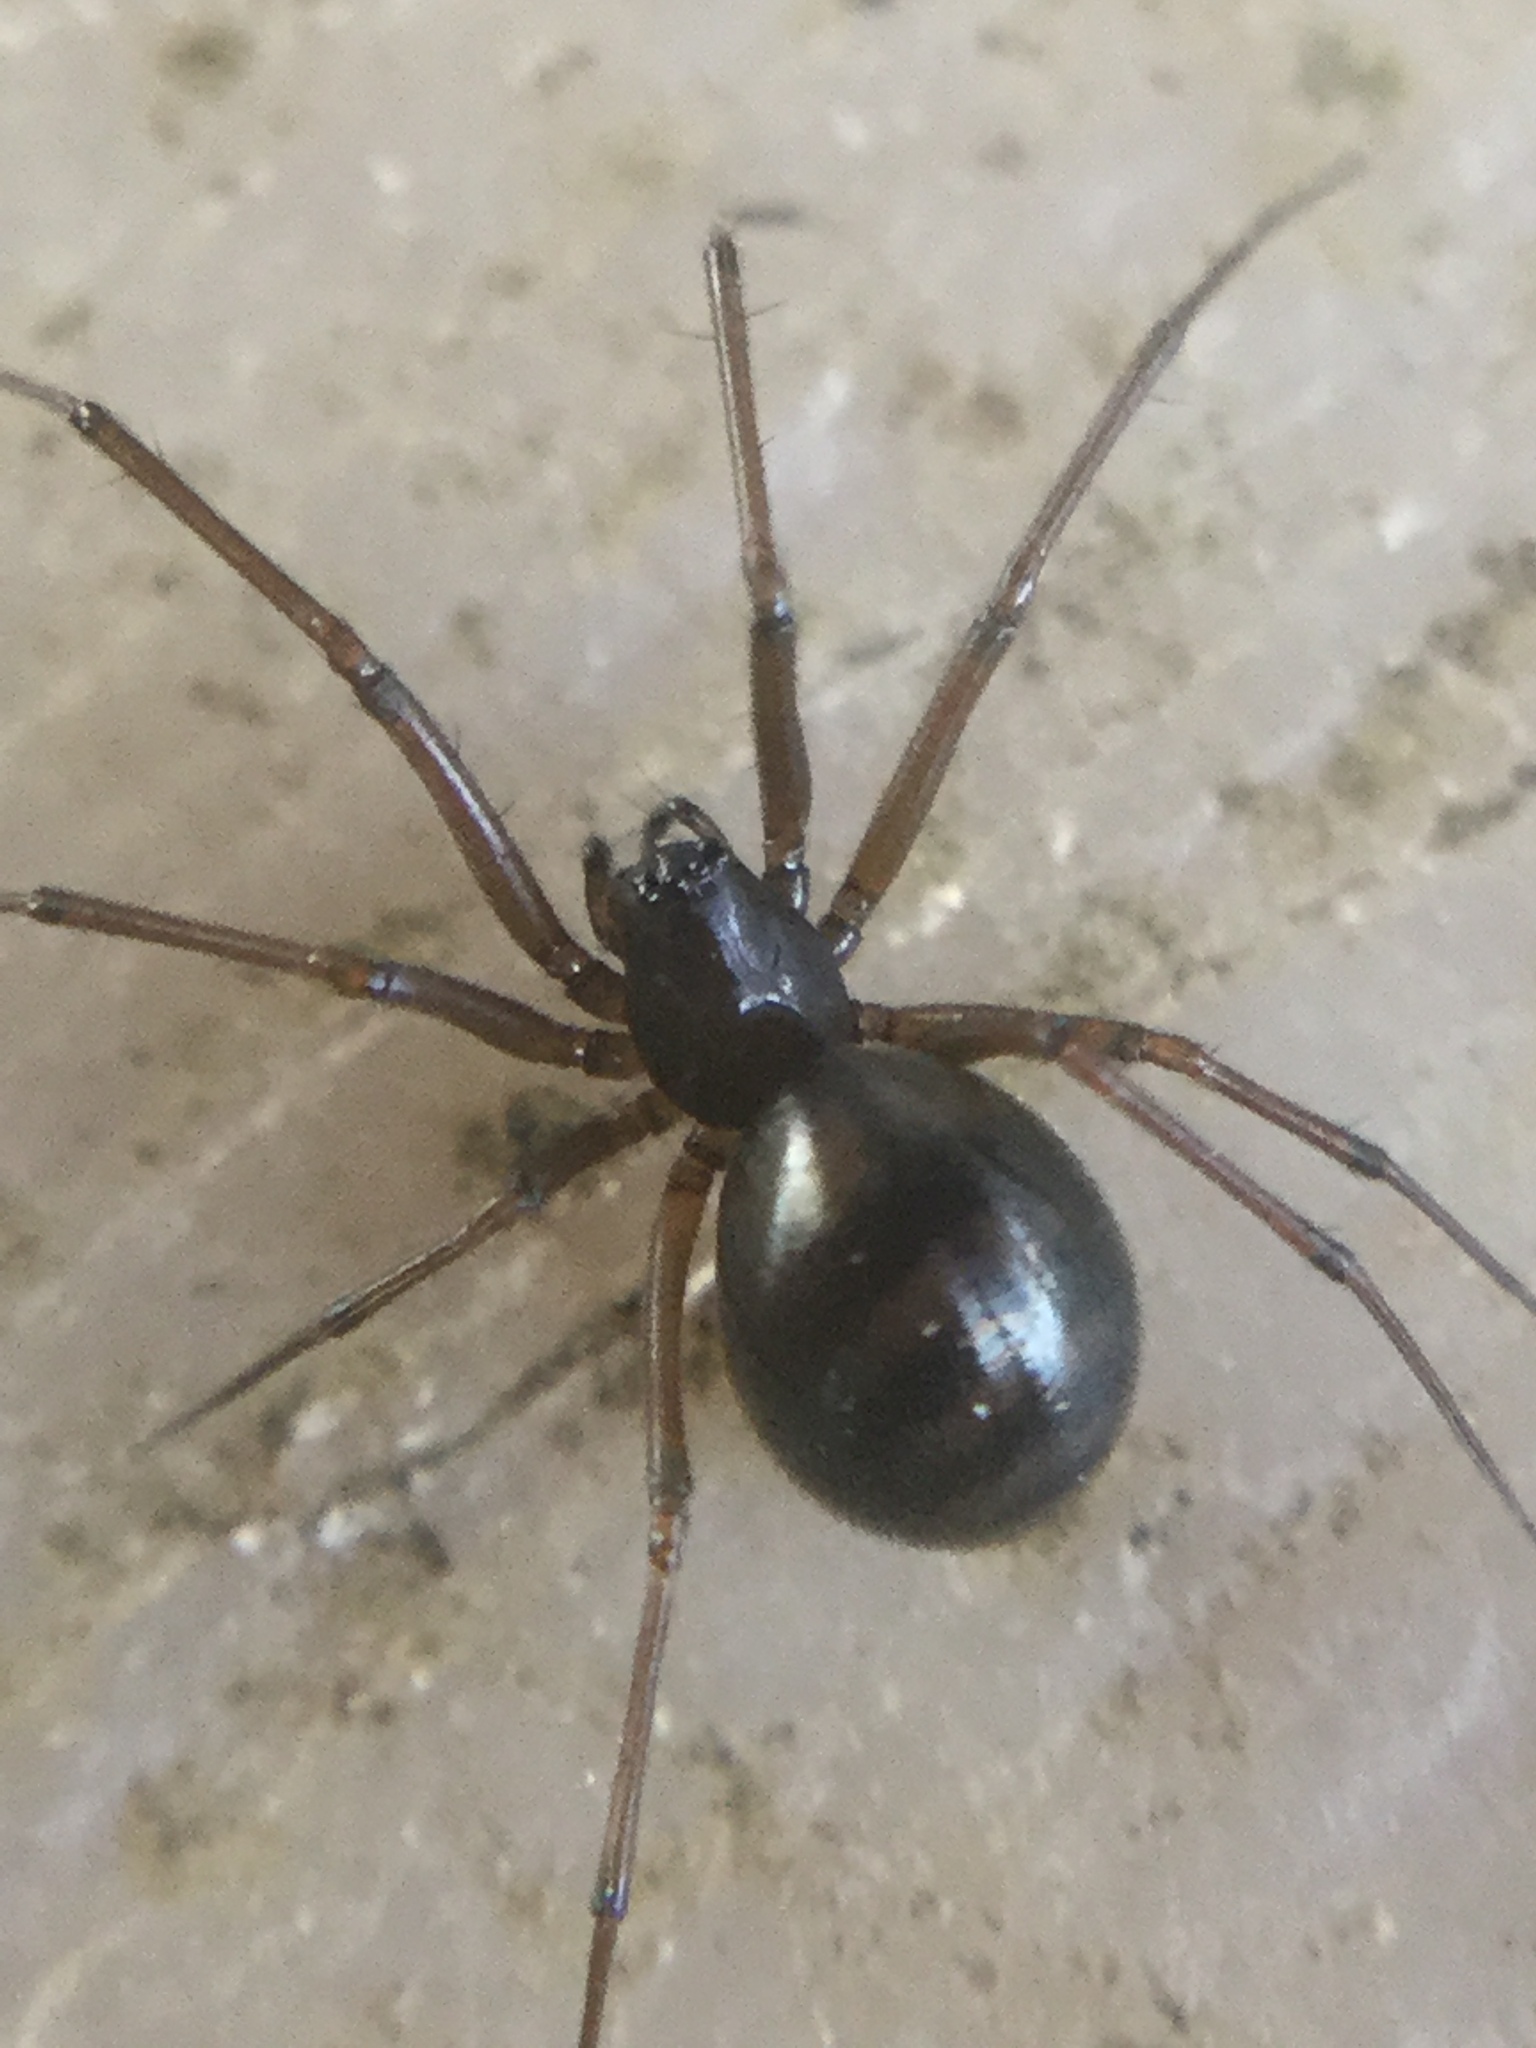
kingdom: Animalia
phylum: Arthropoda
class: Arachnida
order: Araneae
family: Linyphiidae
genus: Bathyphantes
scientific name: Bathyphantes pallidus
